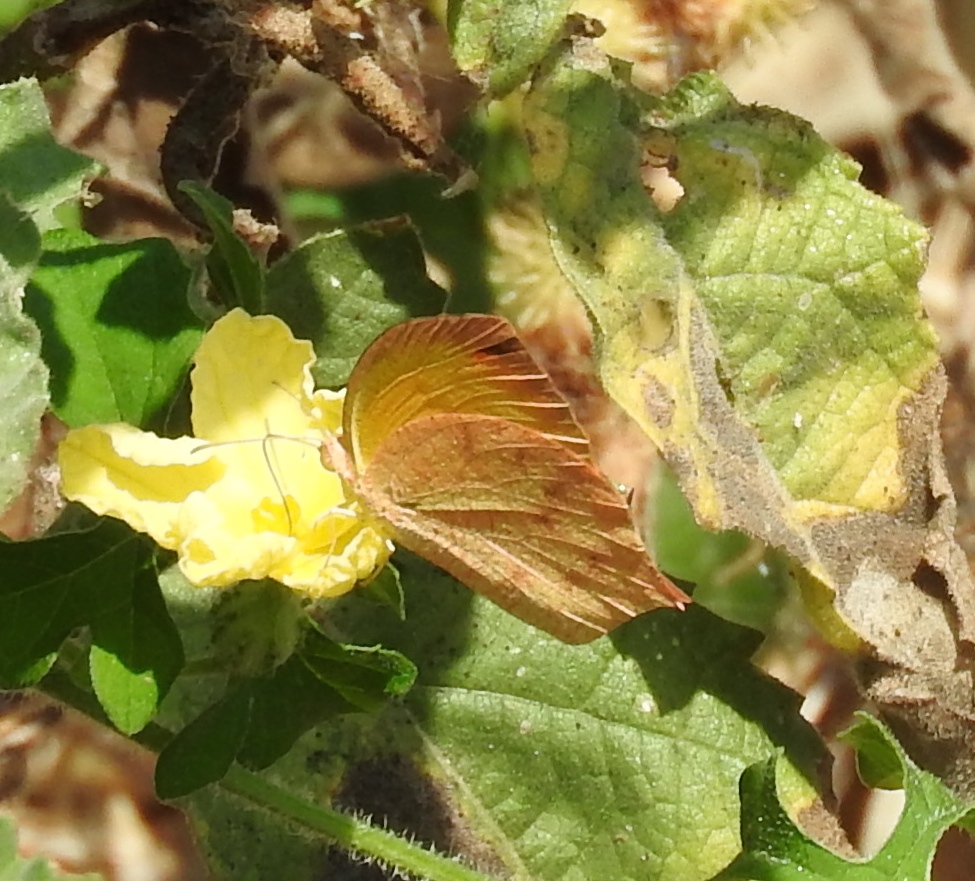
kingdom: Animalia
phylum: Arthropoda
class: Insecta
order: Lepidoptera
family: Pieridae
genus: Pyrisitia
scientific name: Pyrisitia proterpia
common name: Tailed orange
